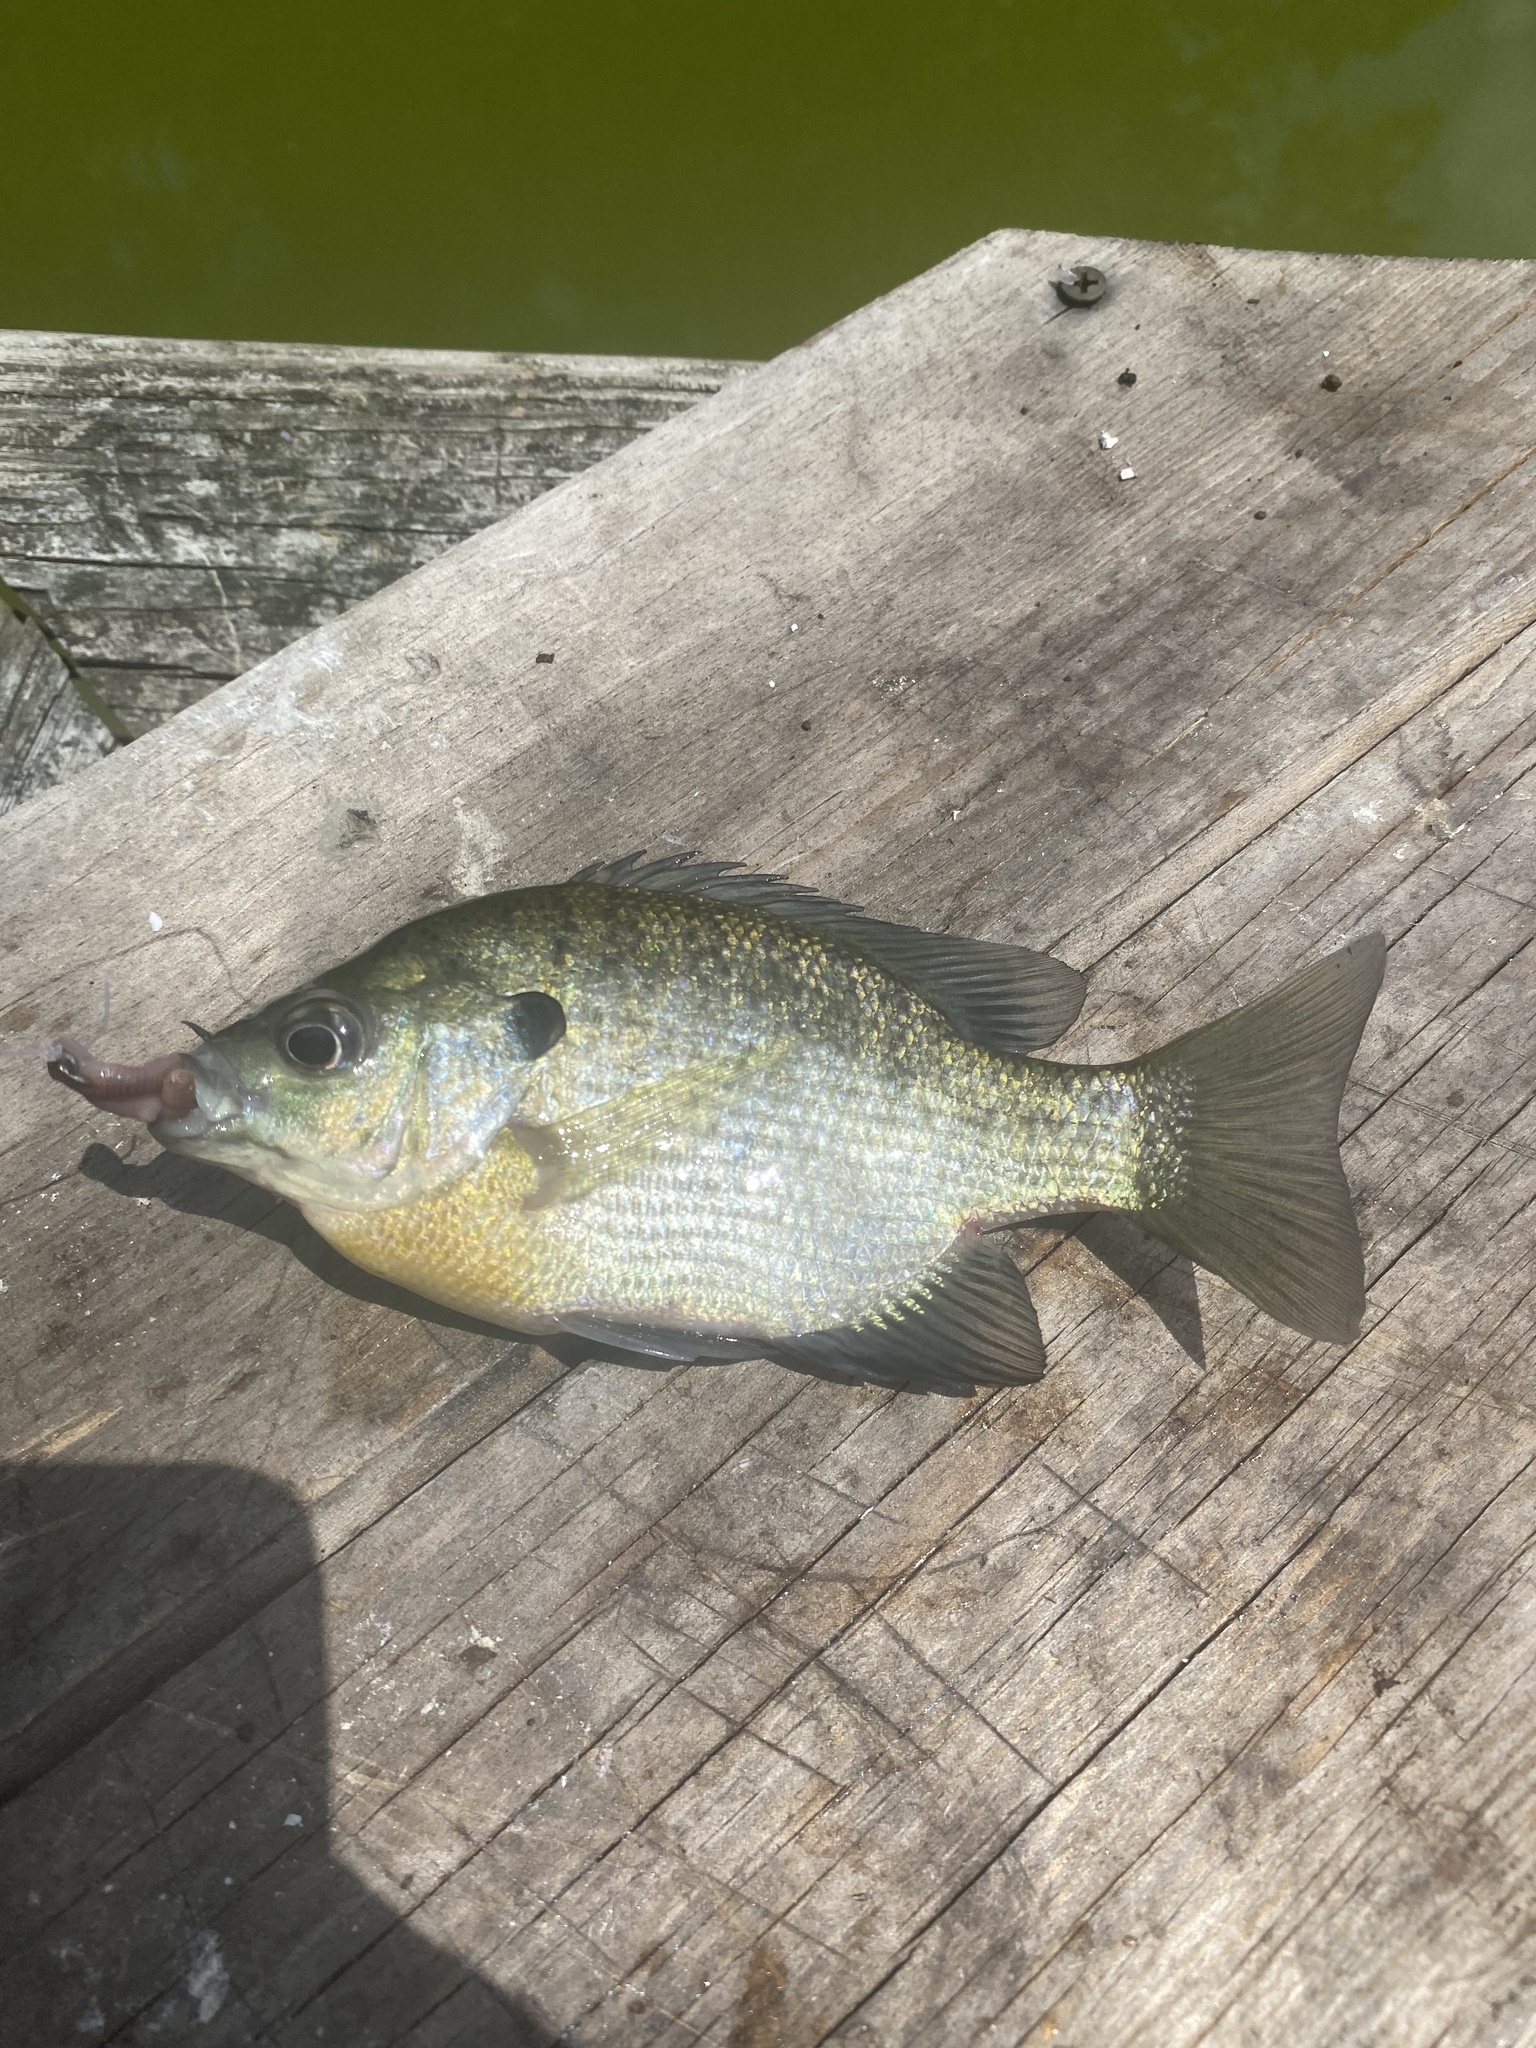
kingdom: Animalia
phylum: Chordata
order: Perciformes
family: Centrarchidae
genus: Lepomis
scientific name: Lepomis macrochirus
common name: Bluegill
